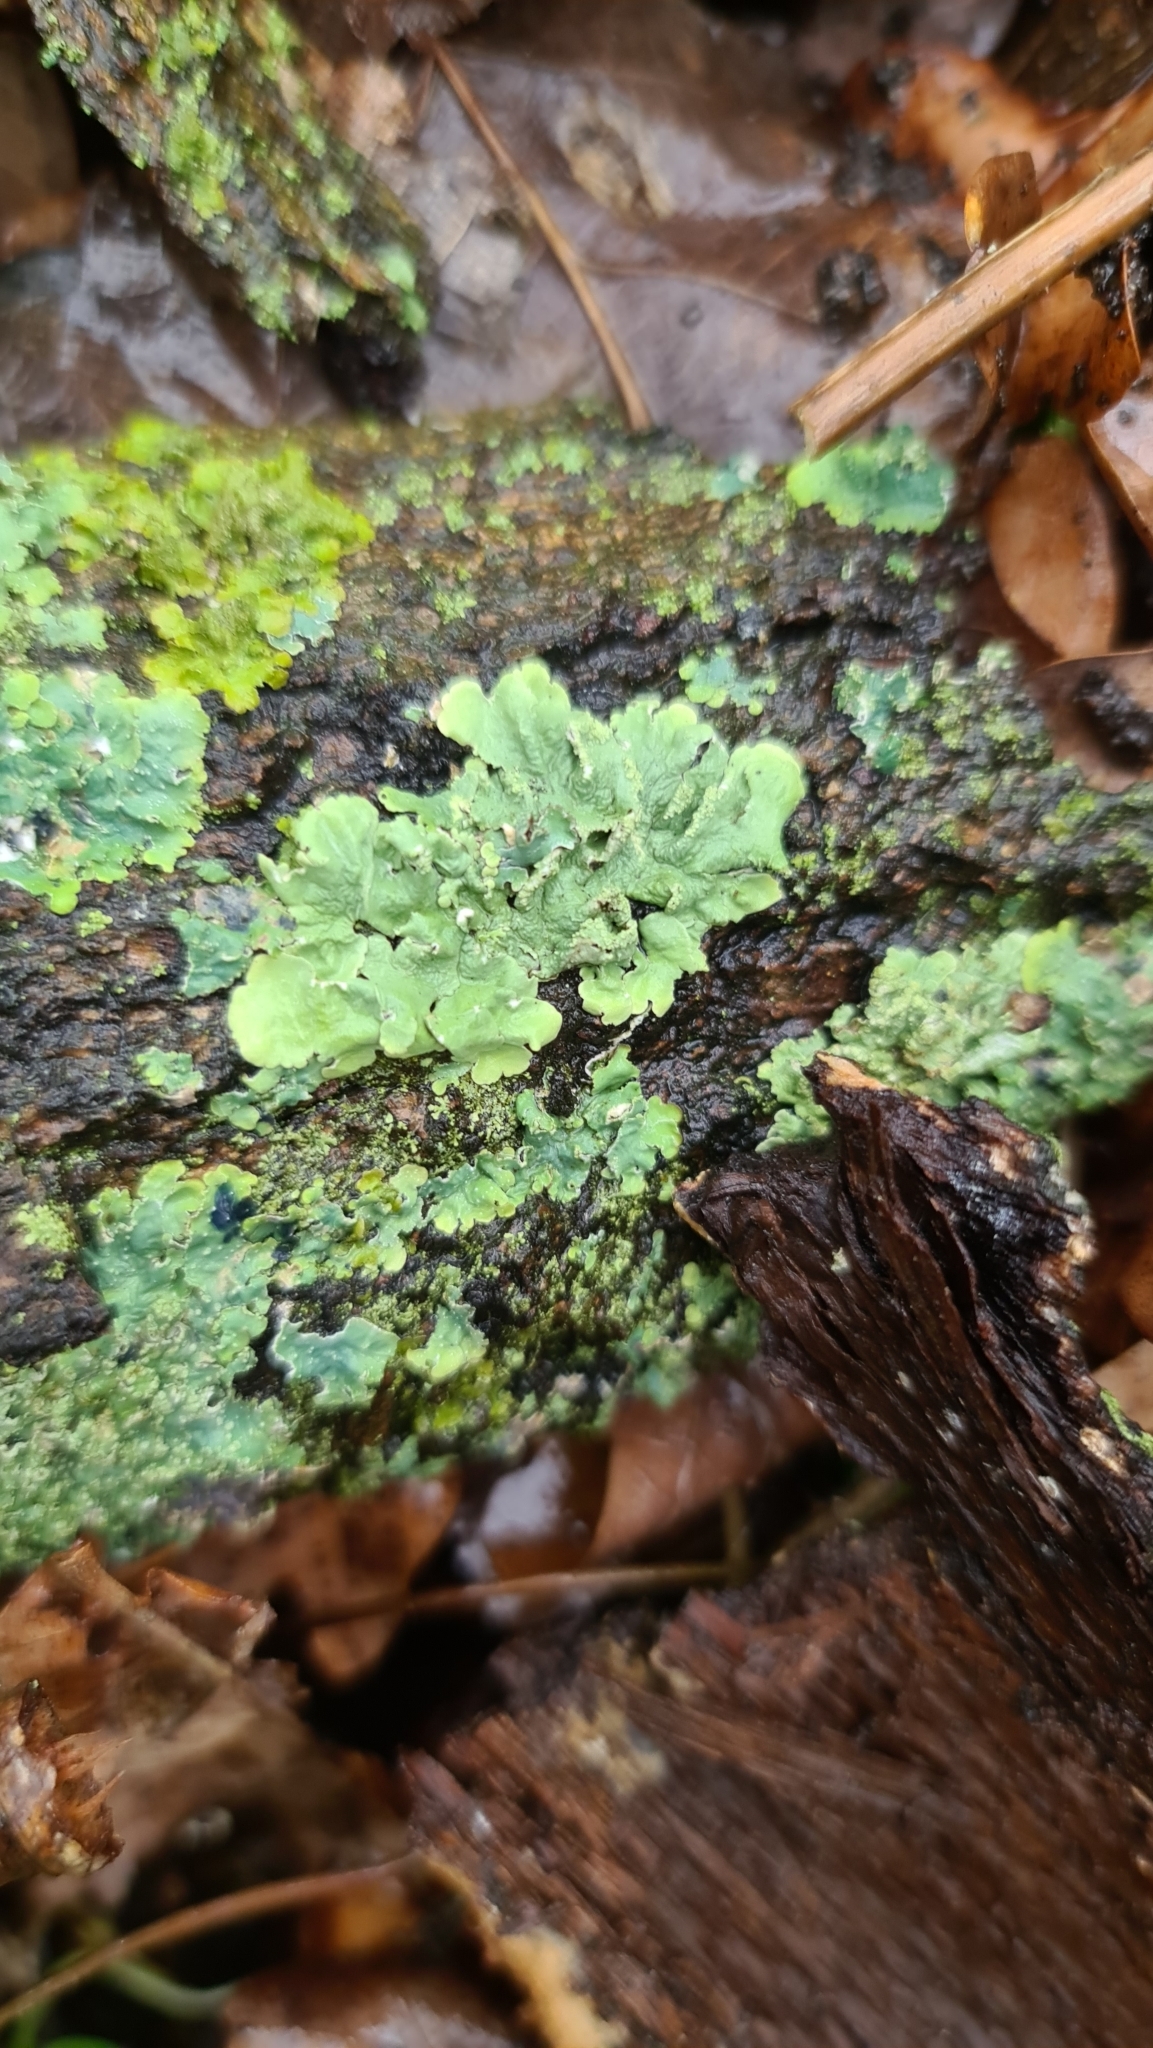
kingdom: Fungi
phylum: Ascomycota
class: Lecanoromycetes
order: Lecanorales
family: Parmeliaceae
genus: Flavoparmelia
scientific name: Flavoparmelia caperata
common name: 40-mile per hour lichen
